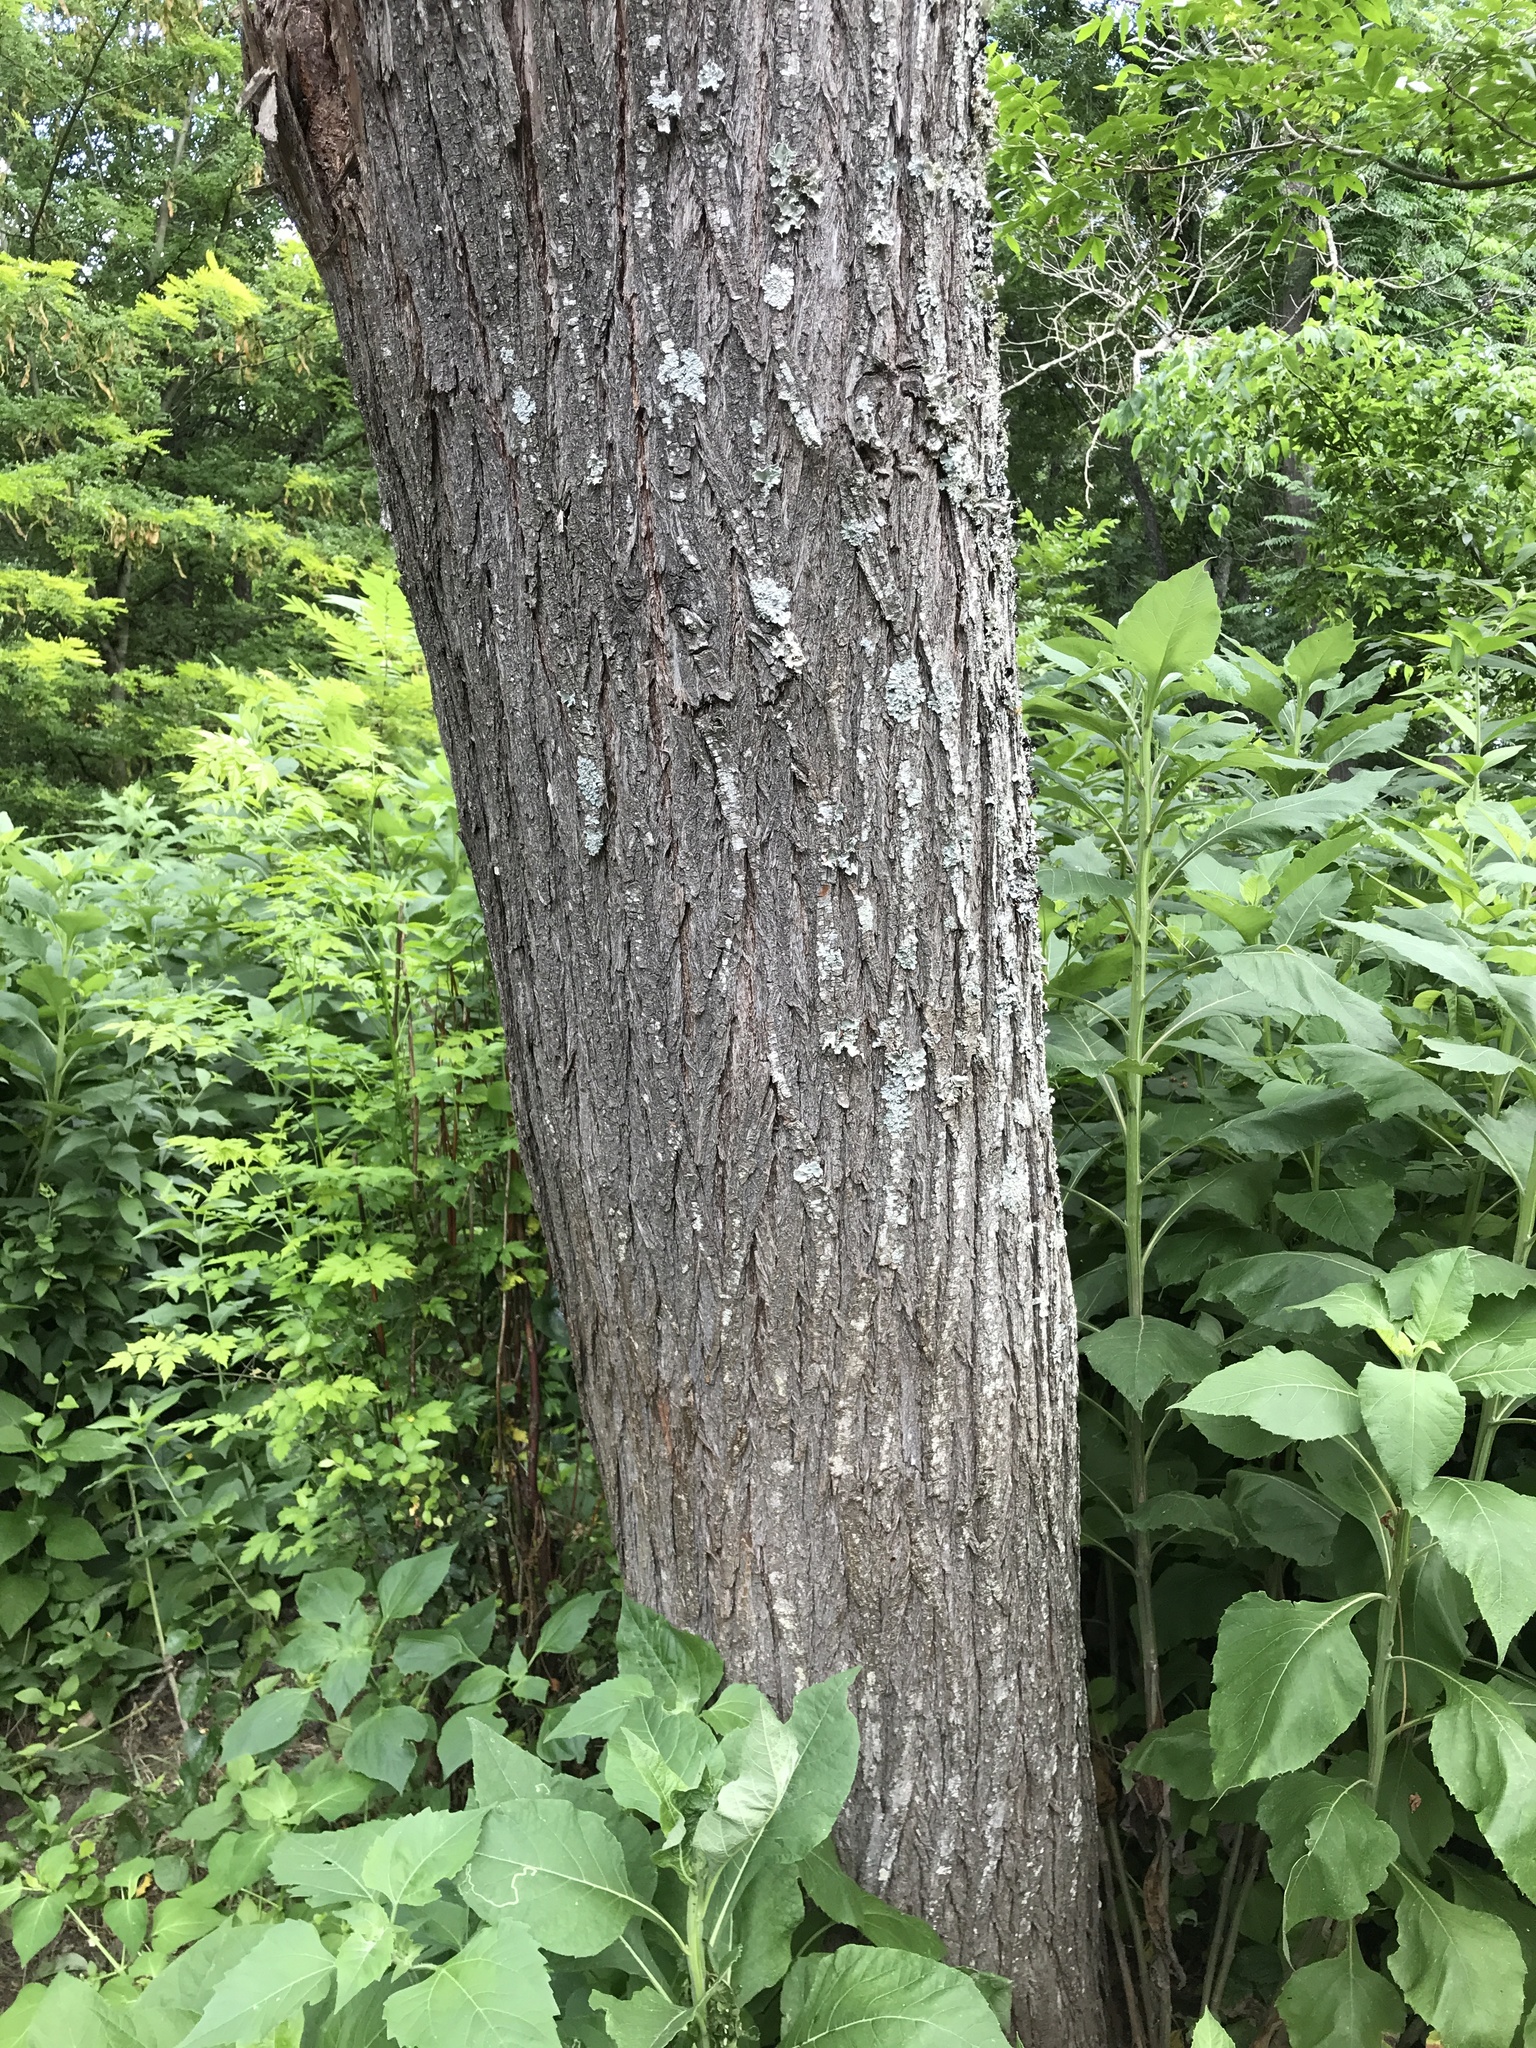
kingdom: Plantae
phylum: Tracheophyta
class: Magnoliopsida
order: Sapindales
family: Meliaceae
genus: Melia
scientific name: Melia azedarach
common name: Chinaberrytree
